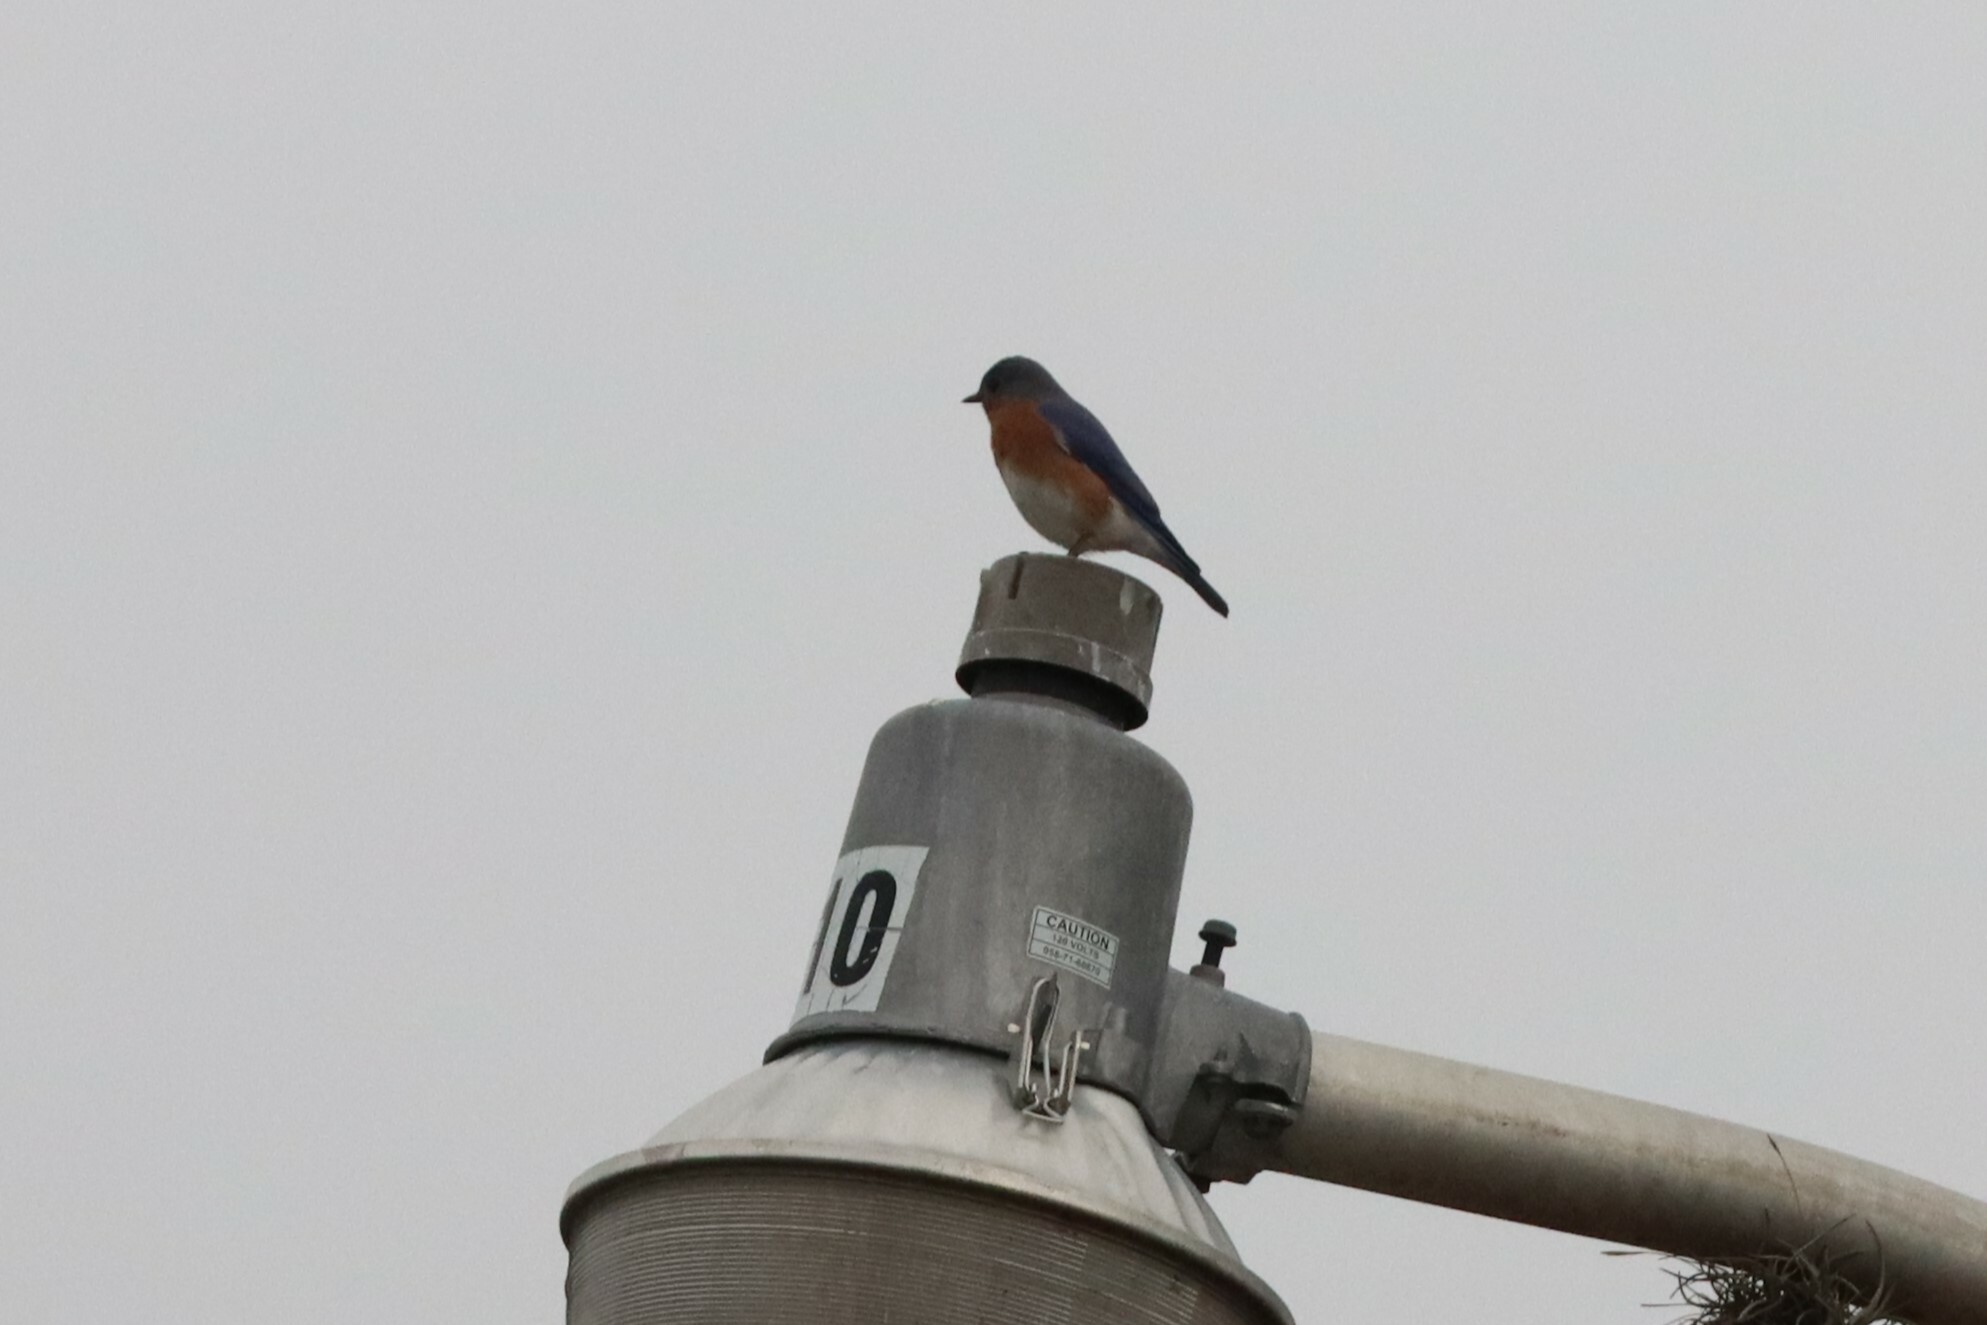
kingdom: Animalia
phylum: Chordata
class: Aves
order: Passeriformes
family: Turdidae
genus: Sialia
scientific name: Sialia sialis
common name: Eastern bluebird
